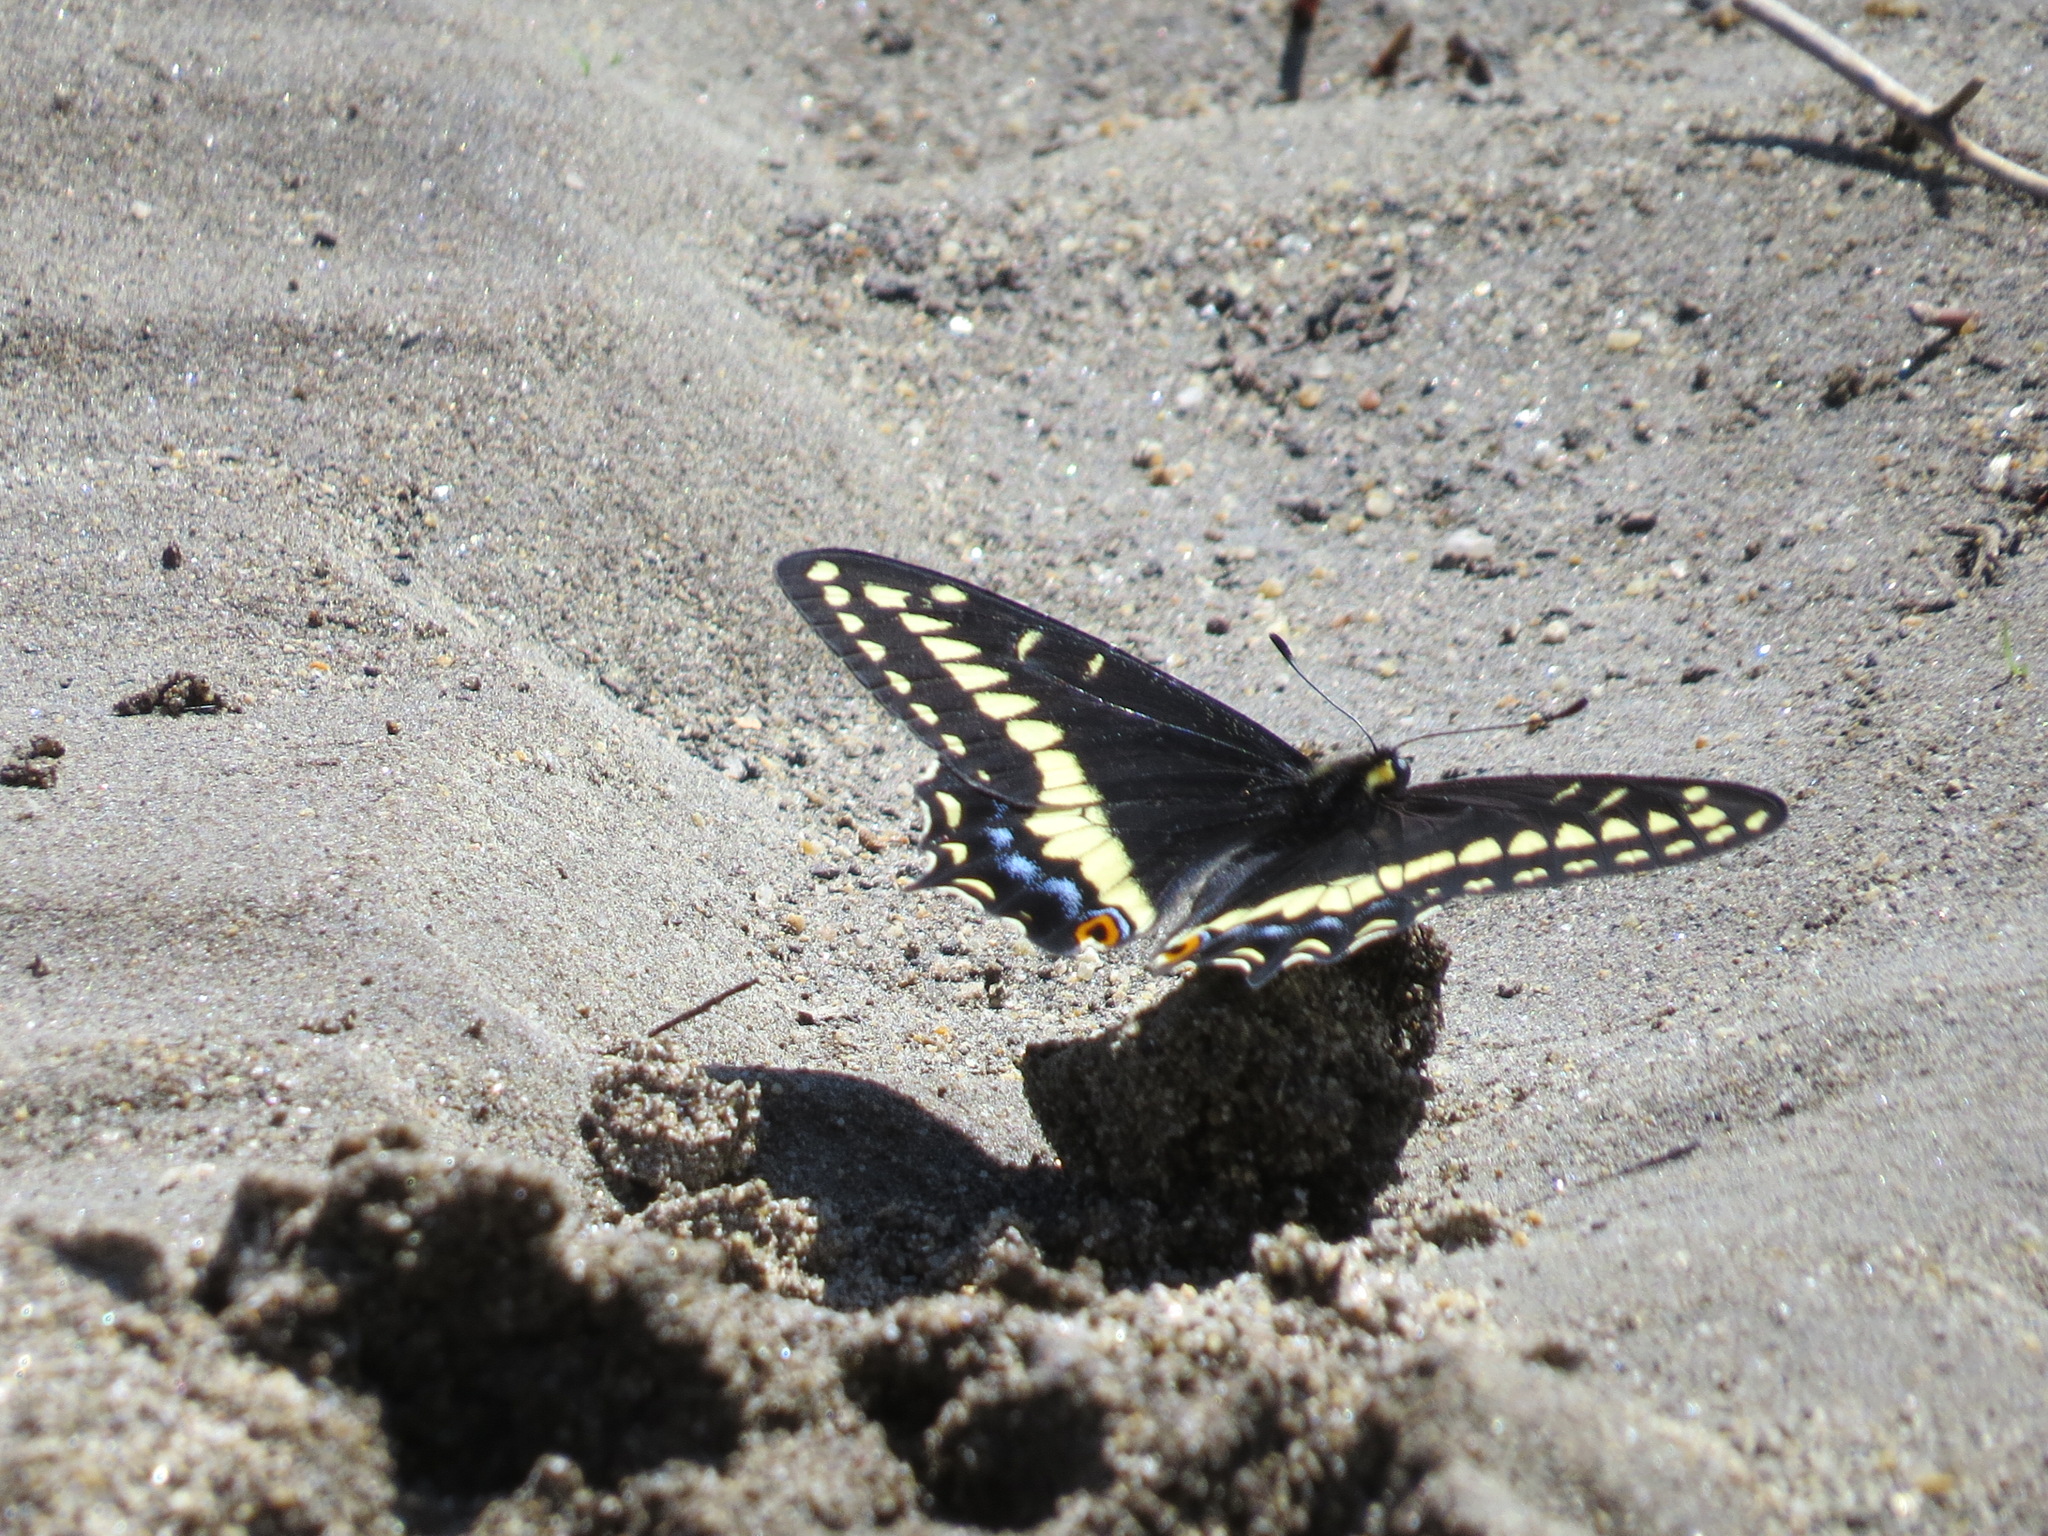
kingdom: Animalia
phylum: Arthropoda
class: Insecta
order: Lepidoptera
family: Papilionidae
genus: Papilio
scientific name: Papilio indra
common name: Cliff swallowtail
